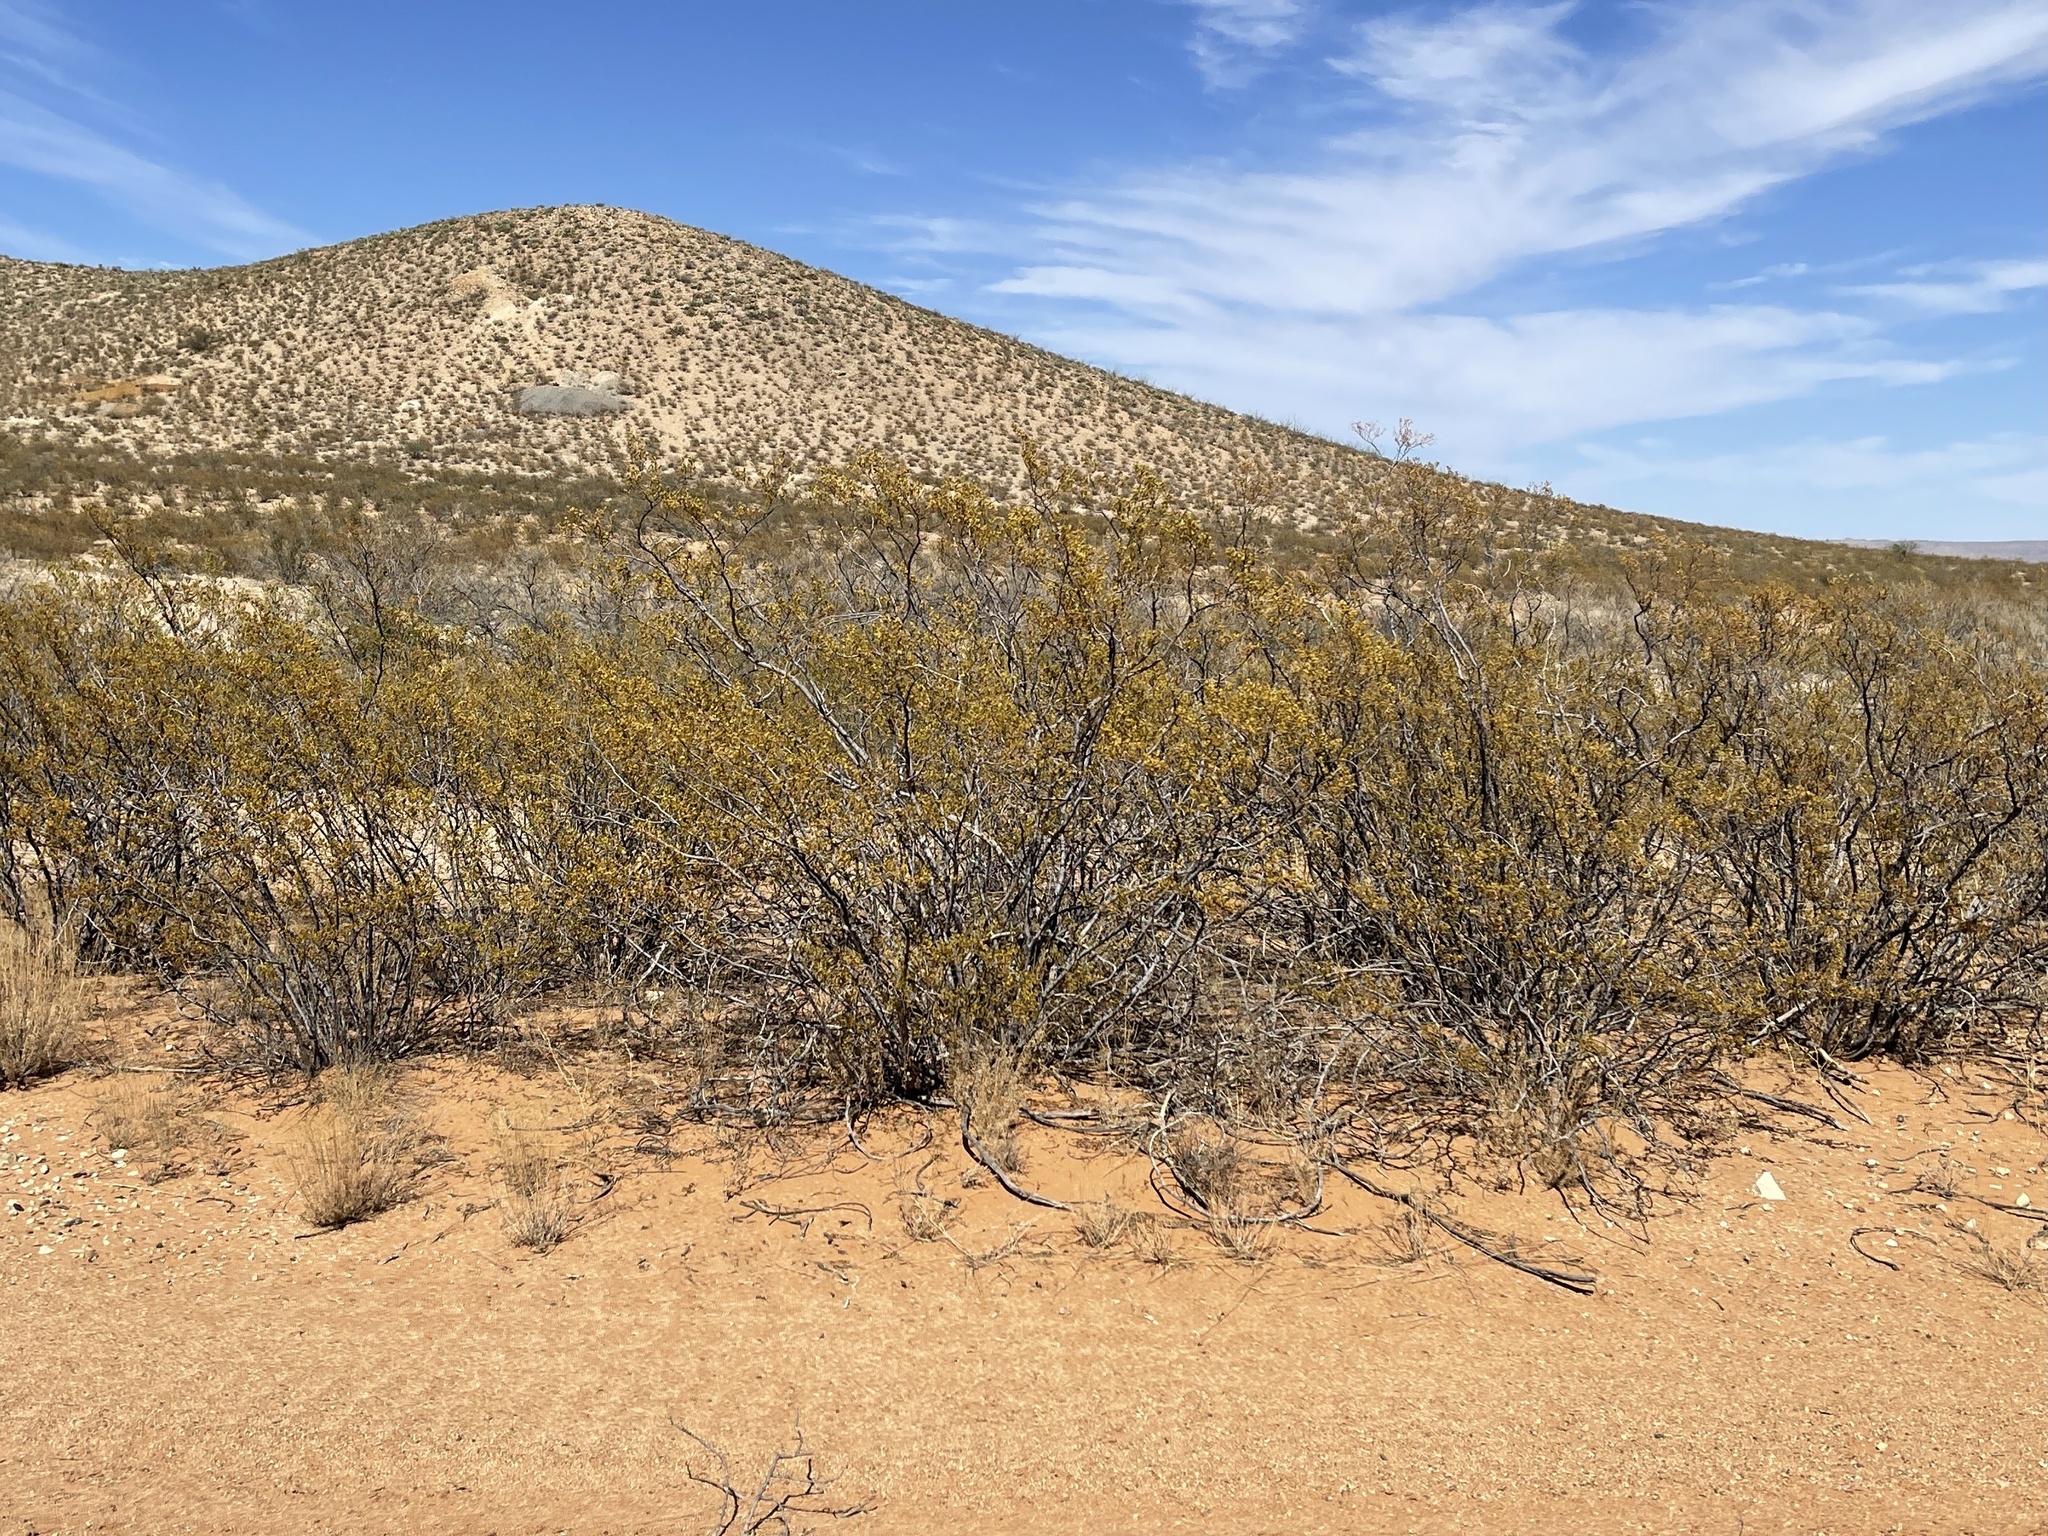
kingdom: Plantae
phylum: Tracheophyta
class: Magnoliopsida
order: Zygophyllales
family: Zygophyllaceae
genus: Larrea
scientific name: Larrea tridentata
